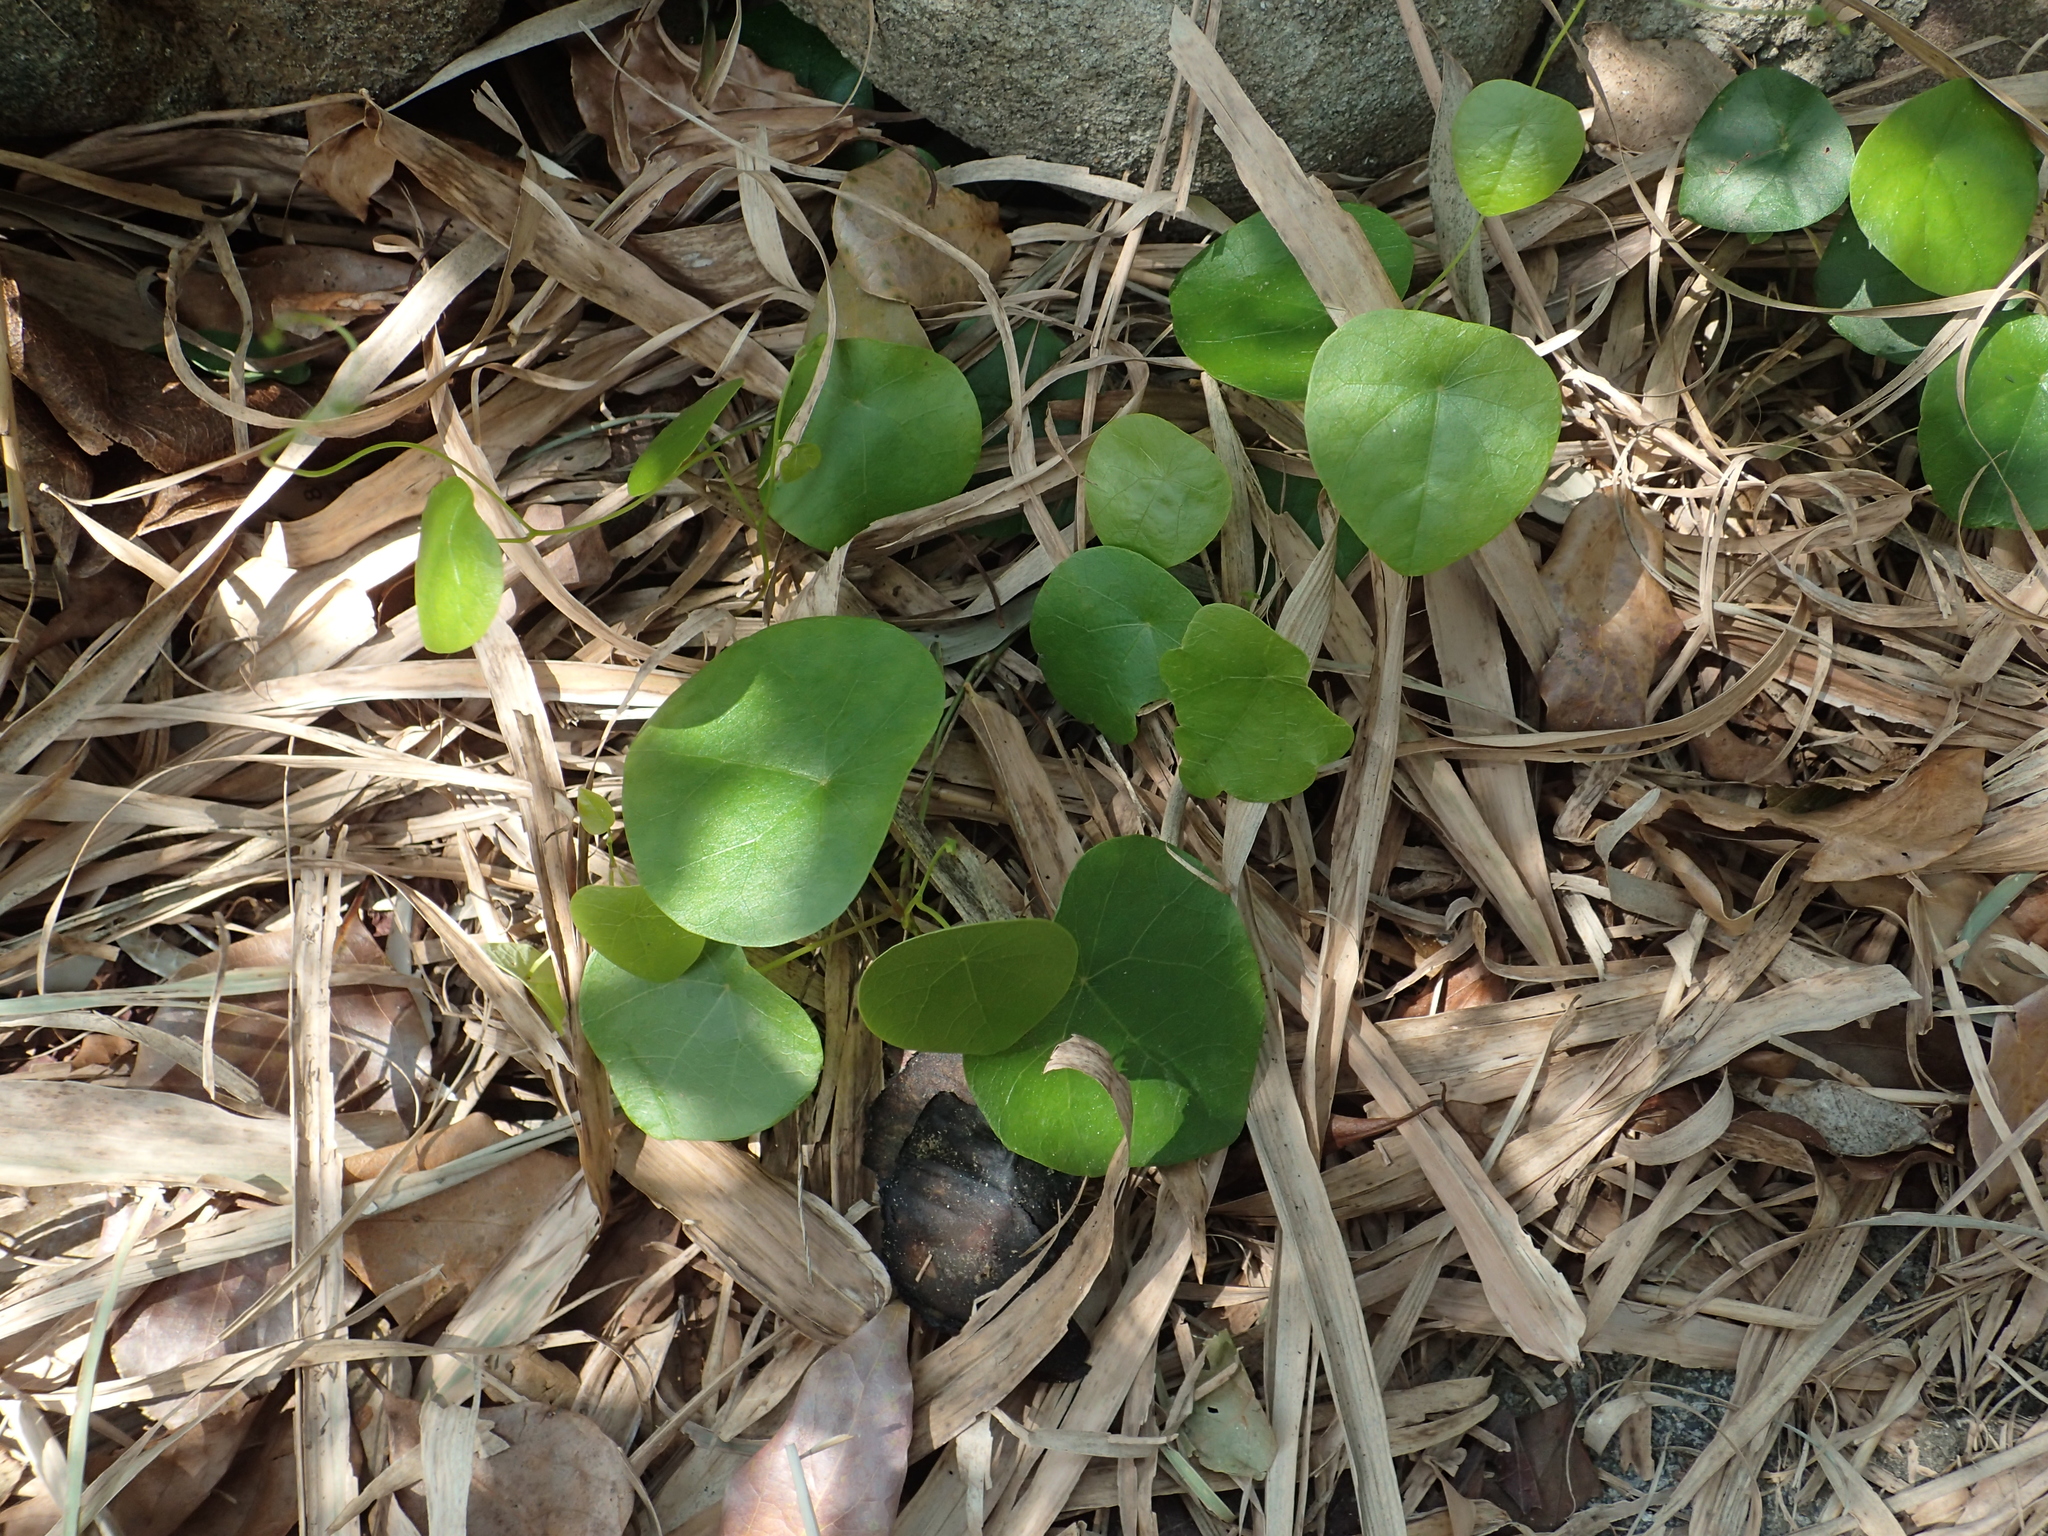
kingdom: Plantae
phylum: Tracheophyta
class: Magnoliopsida
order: Ranunculales
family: Menispermaceae
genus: Stephania
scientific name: Stephania japonica
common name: Snake vine
